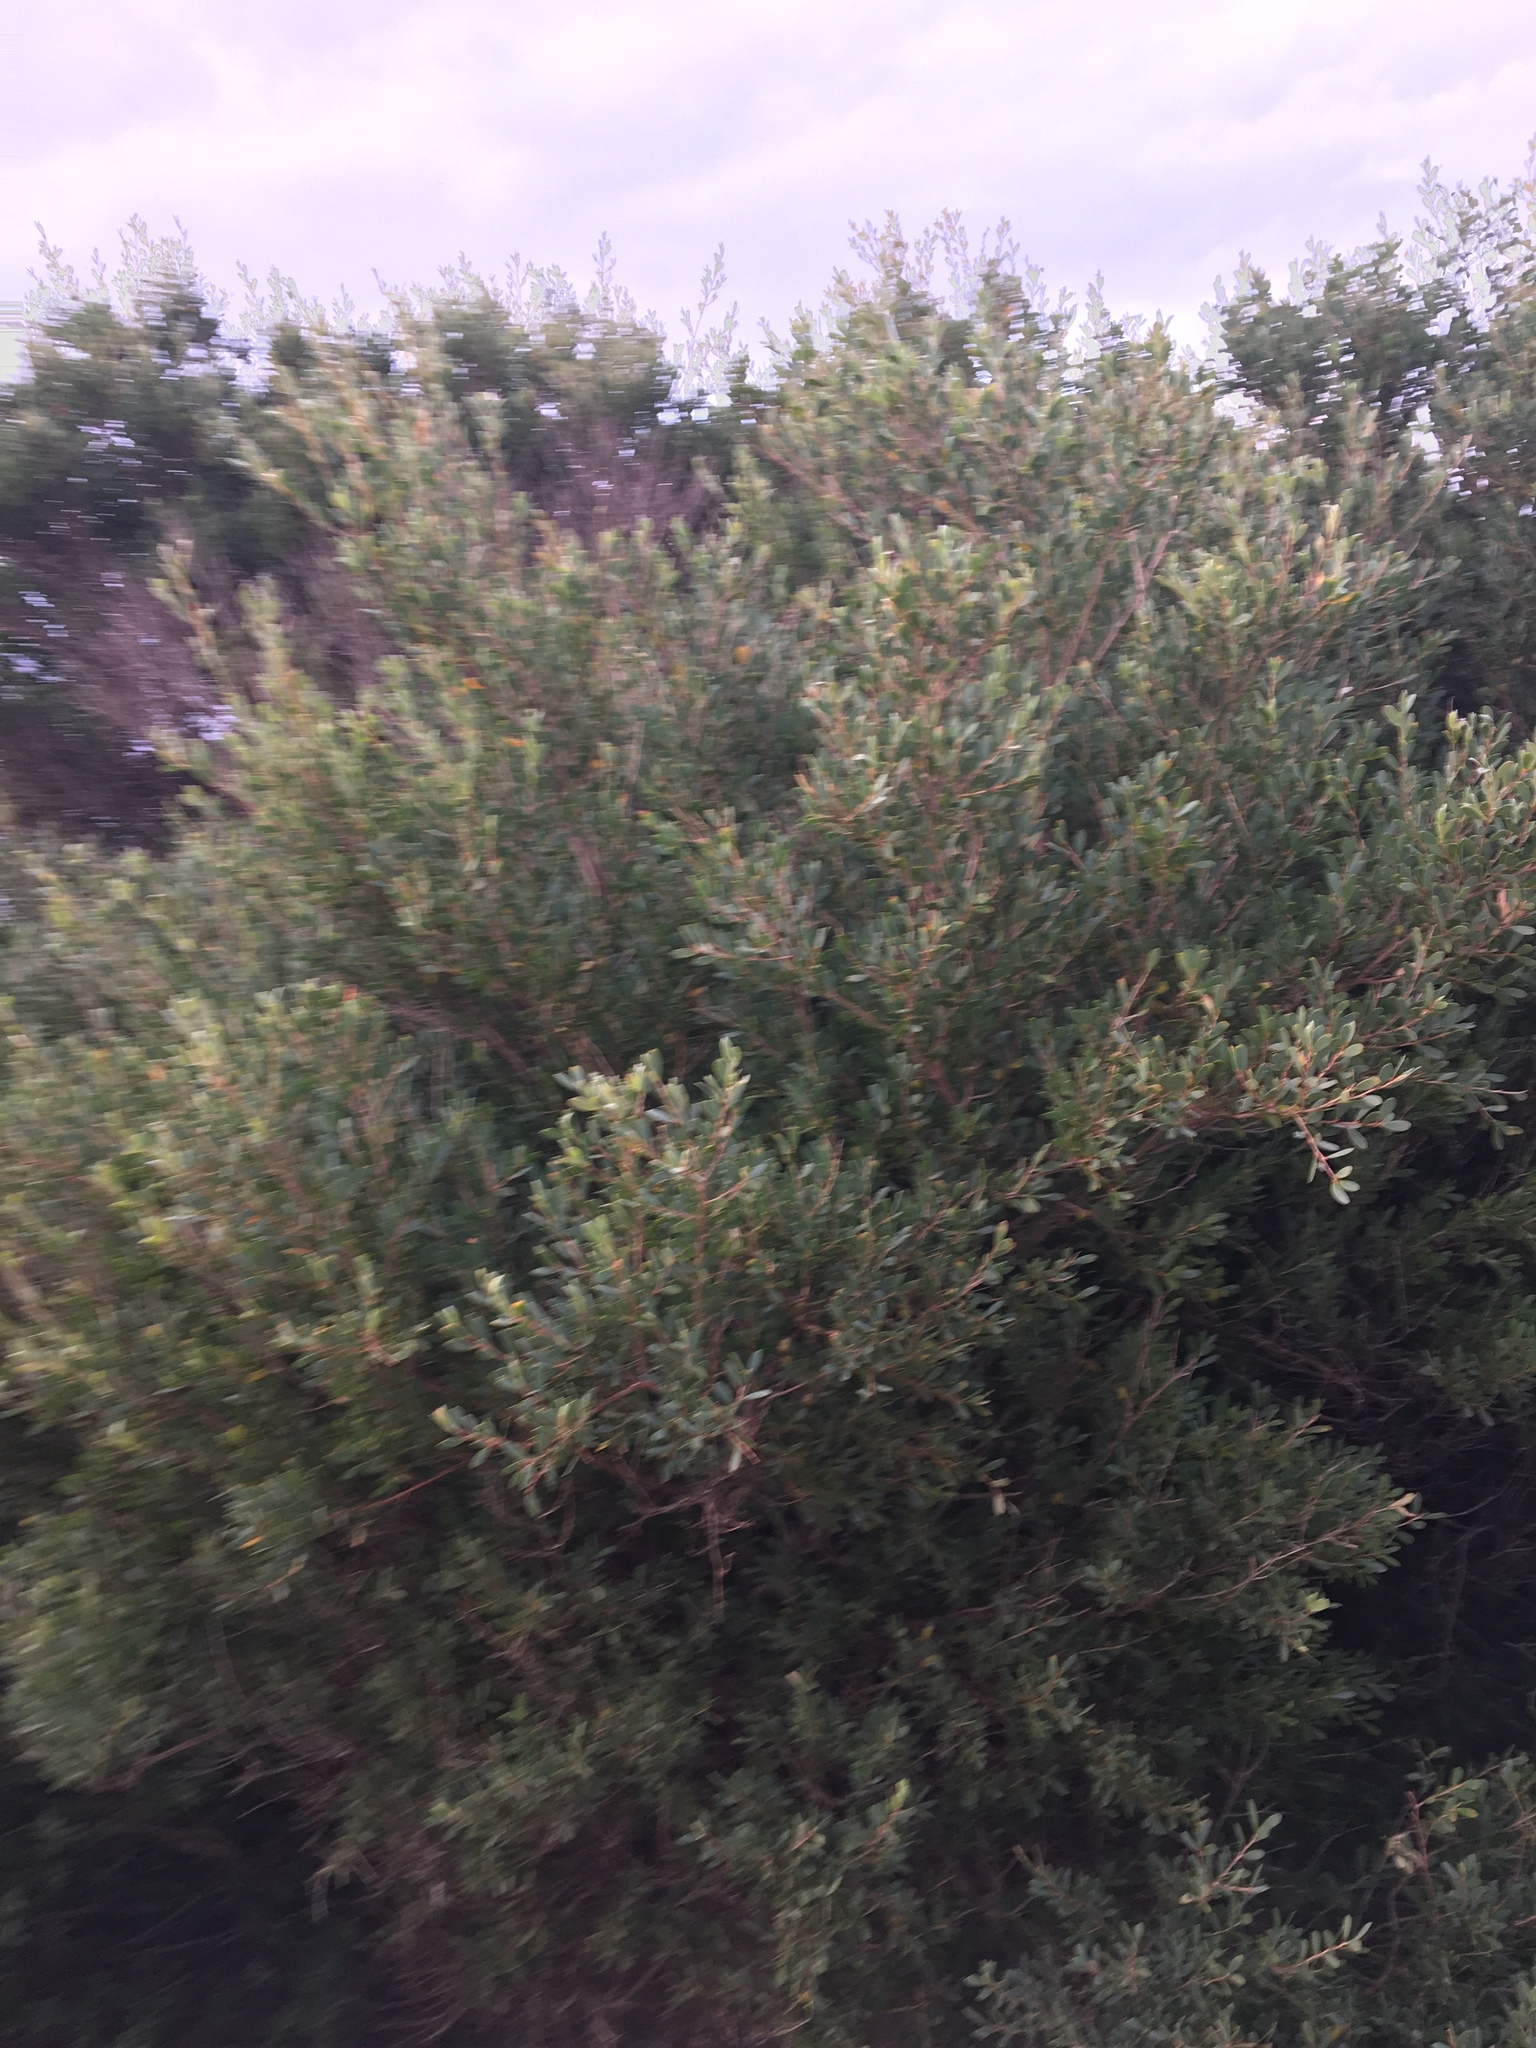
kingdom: Plantae
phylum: Tracheophyta
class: Magnoliopsida
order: Myrtales
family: Myrtaceae
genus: Leptospermum
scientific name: Leptospermum laevigatum
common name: Australian teatree
